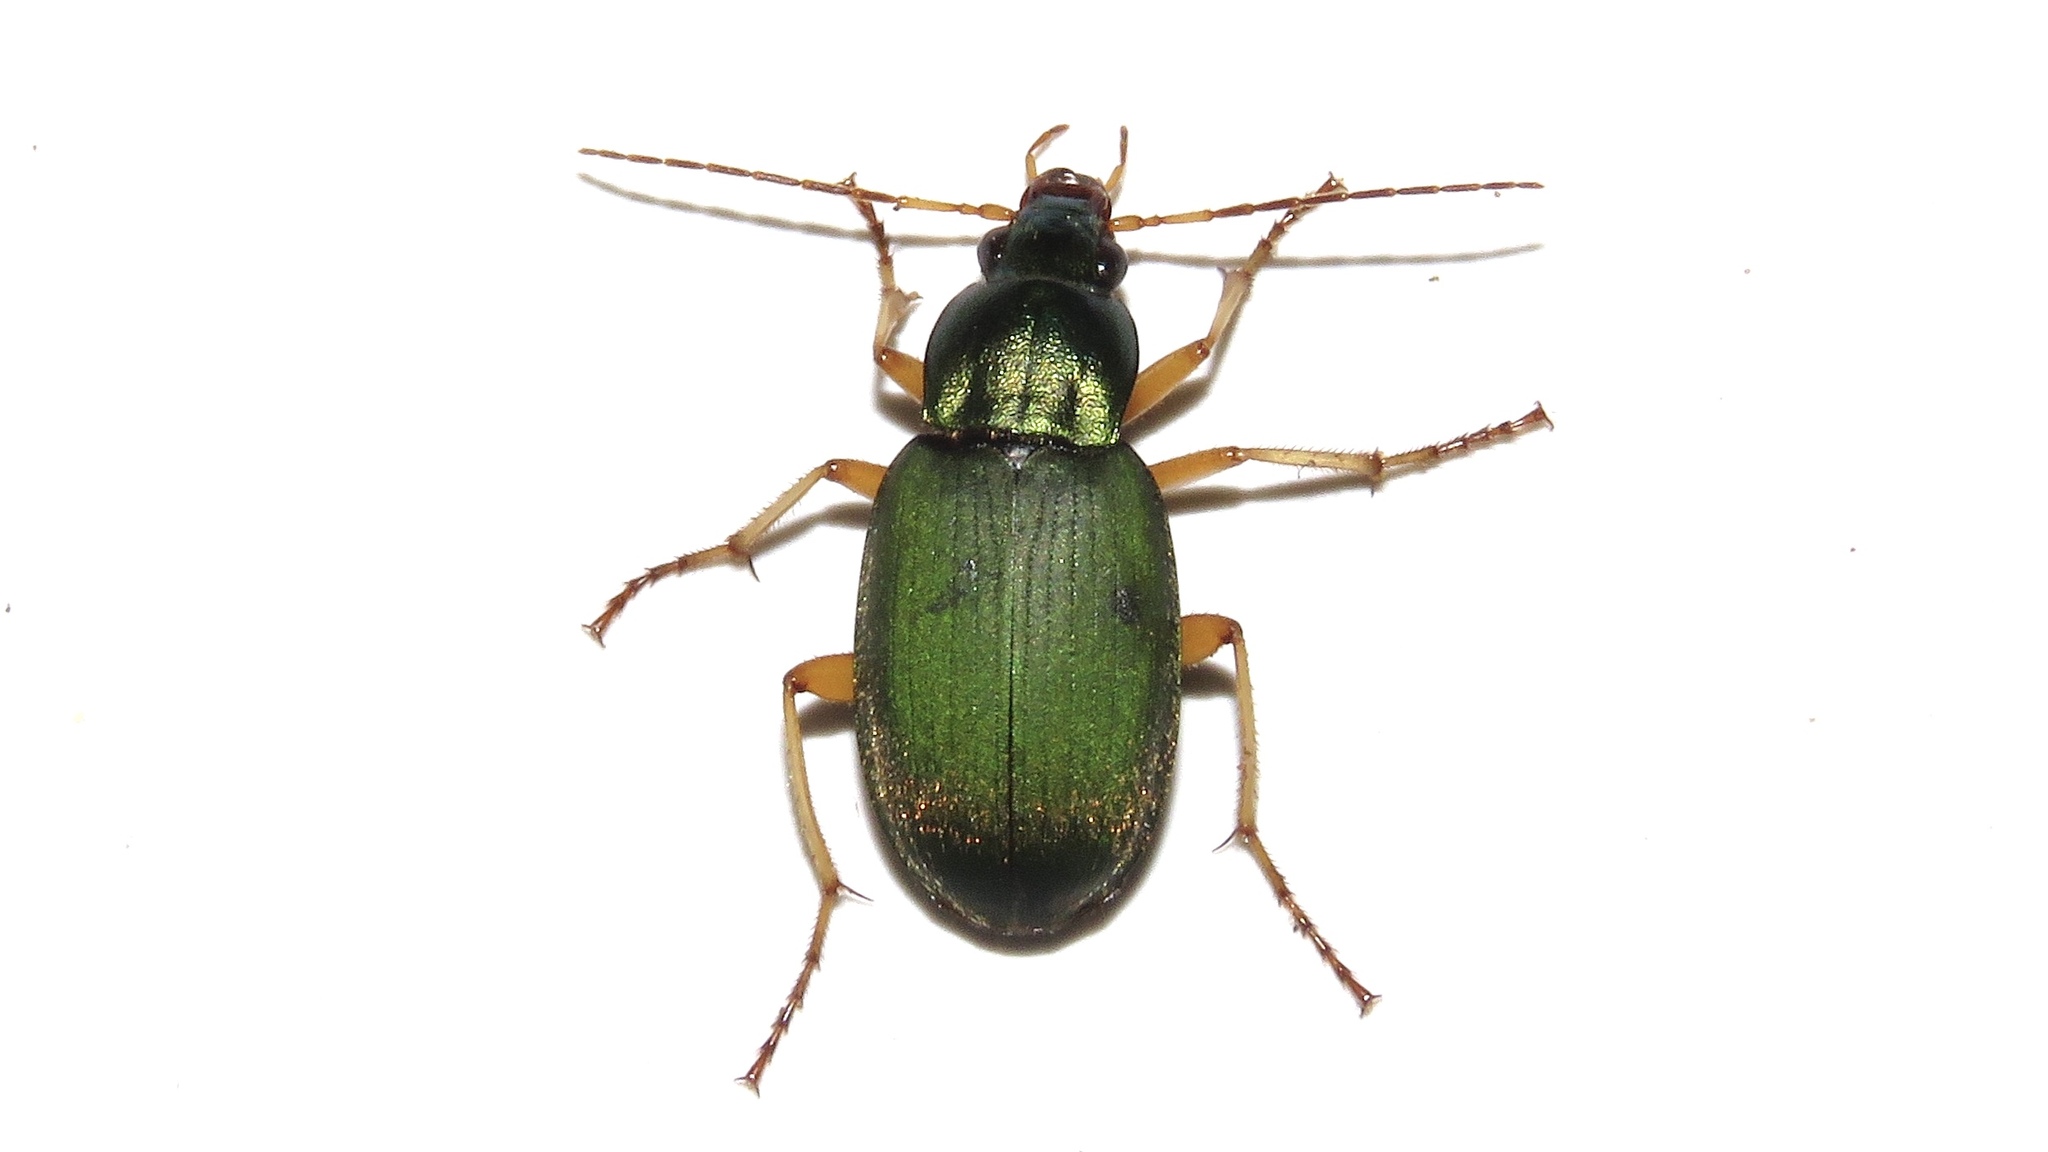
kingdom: Animalia
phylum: Arthropoda
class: Insecta
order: Coleoptera
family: Carabidae
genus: Chlaenius
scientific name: Chlaenius sericeus
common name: Green pubescent ground beetle
